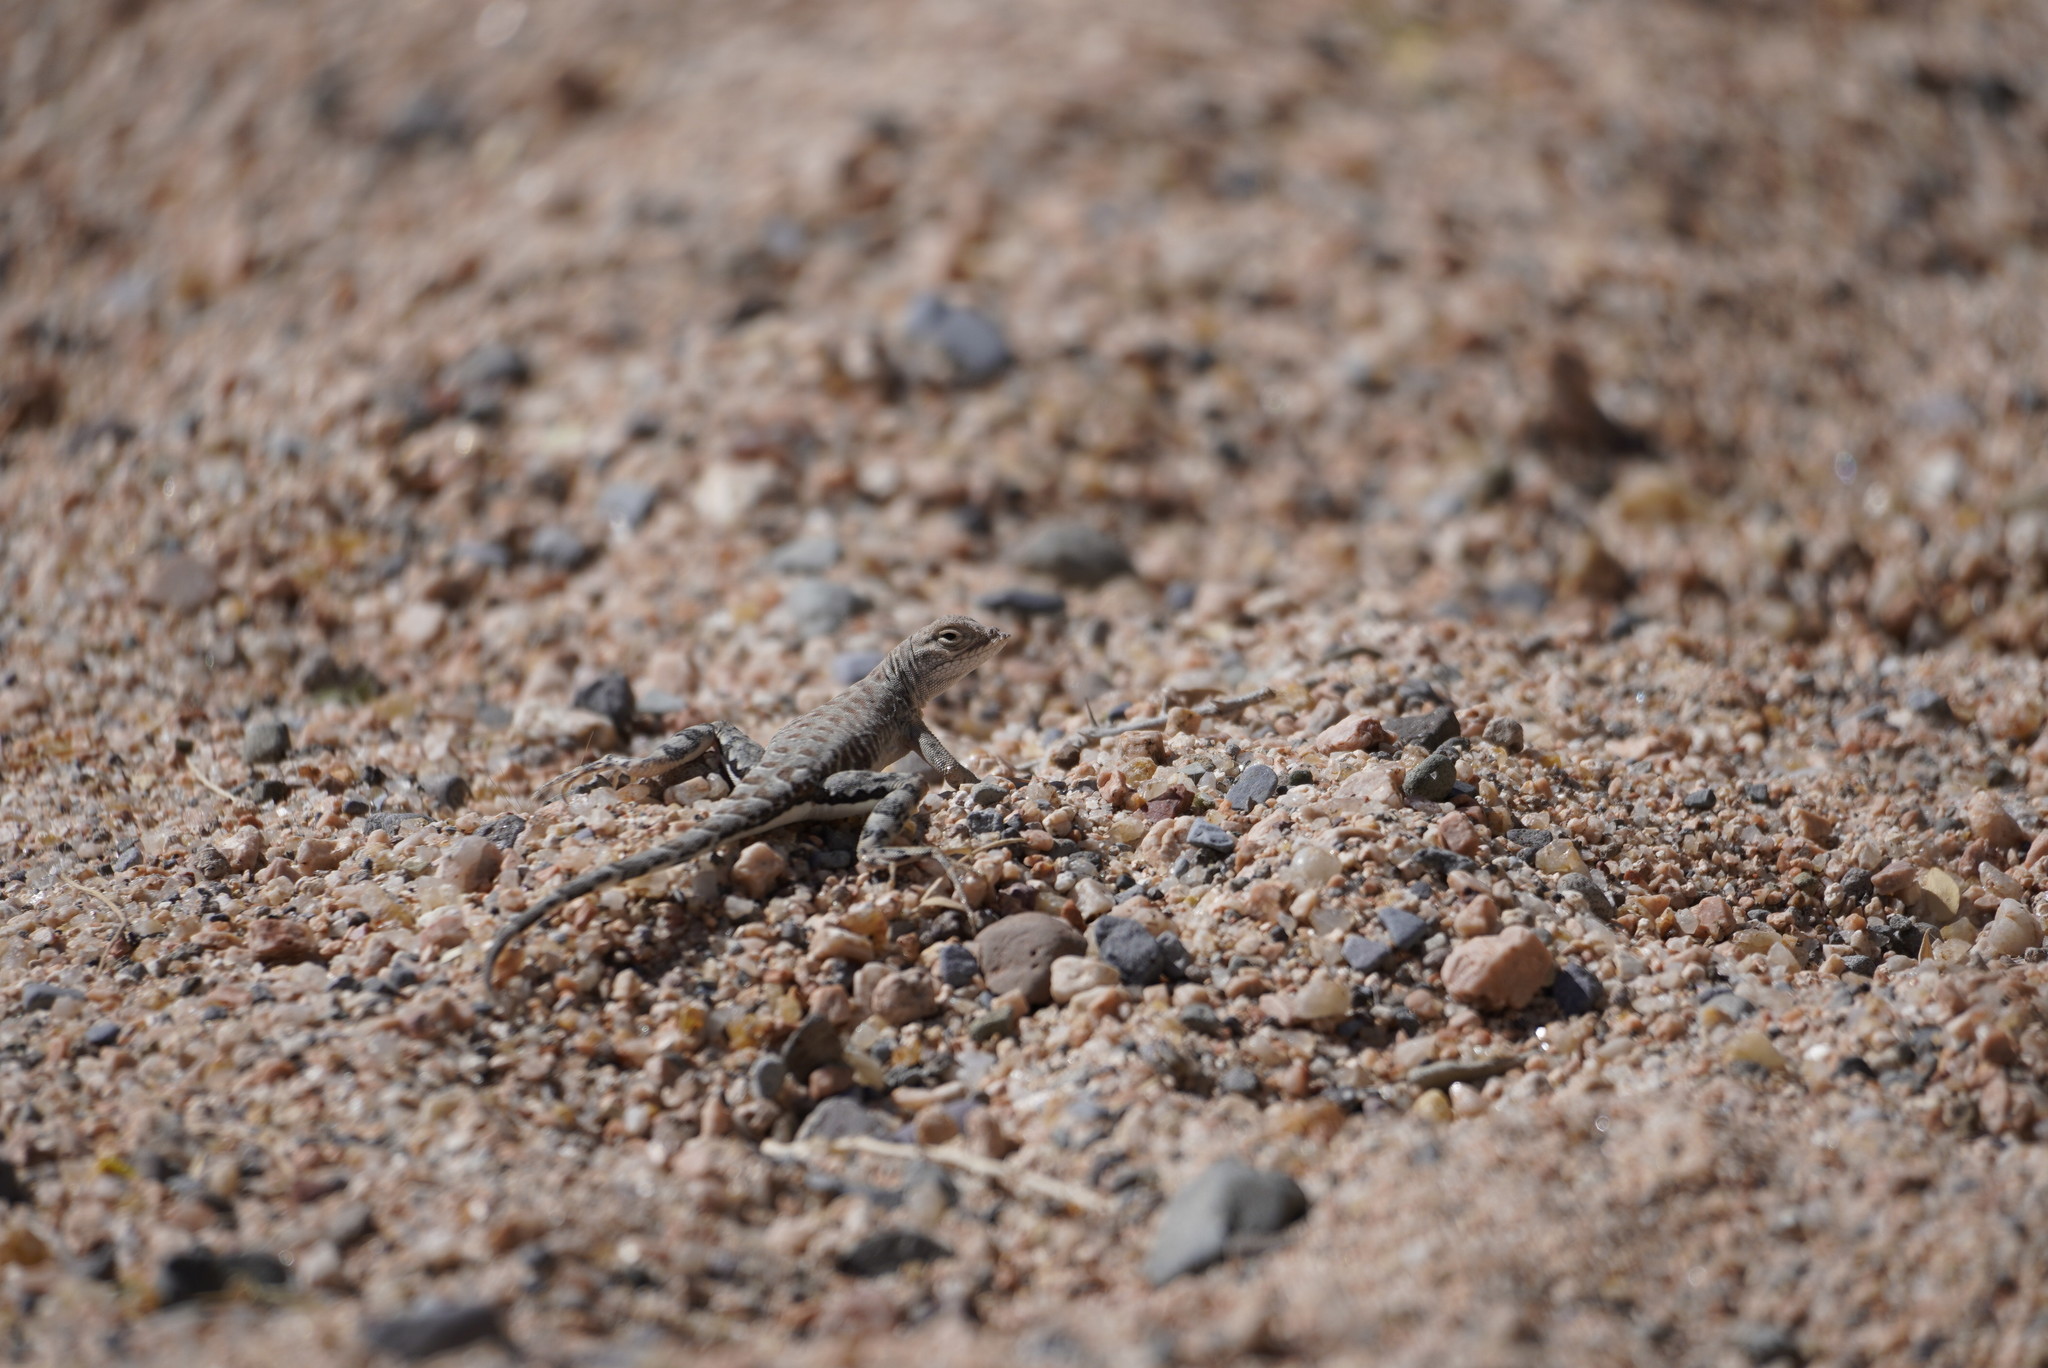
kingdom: Animalia
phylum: Chordata
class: Squamata
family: Phrynosomatidae
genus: Cophosaurus
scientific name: Cophosaurus texanus
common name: Greater earless lizard
